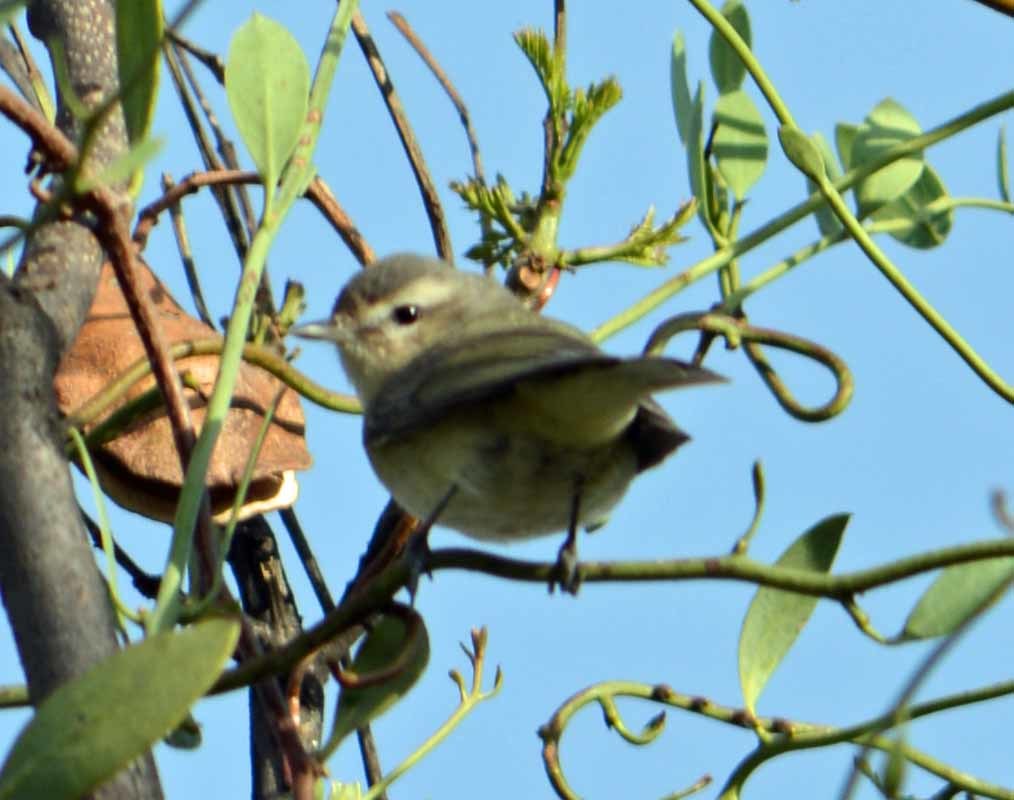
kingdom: Animalia
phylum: Chordata
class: Aves
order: Passeriformes
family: Vireonidae
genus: Vireo
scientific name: Vireo philadelphicus
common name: Philadelphia vireo
